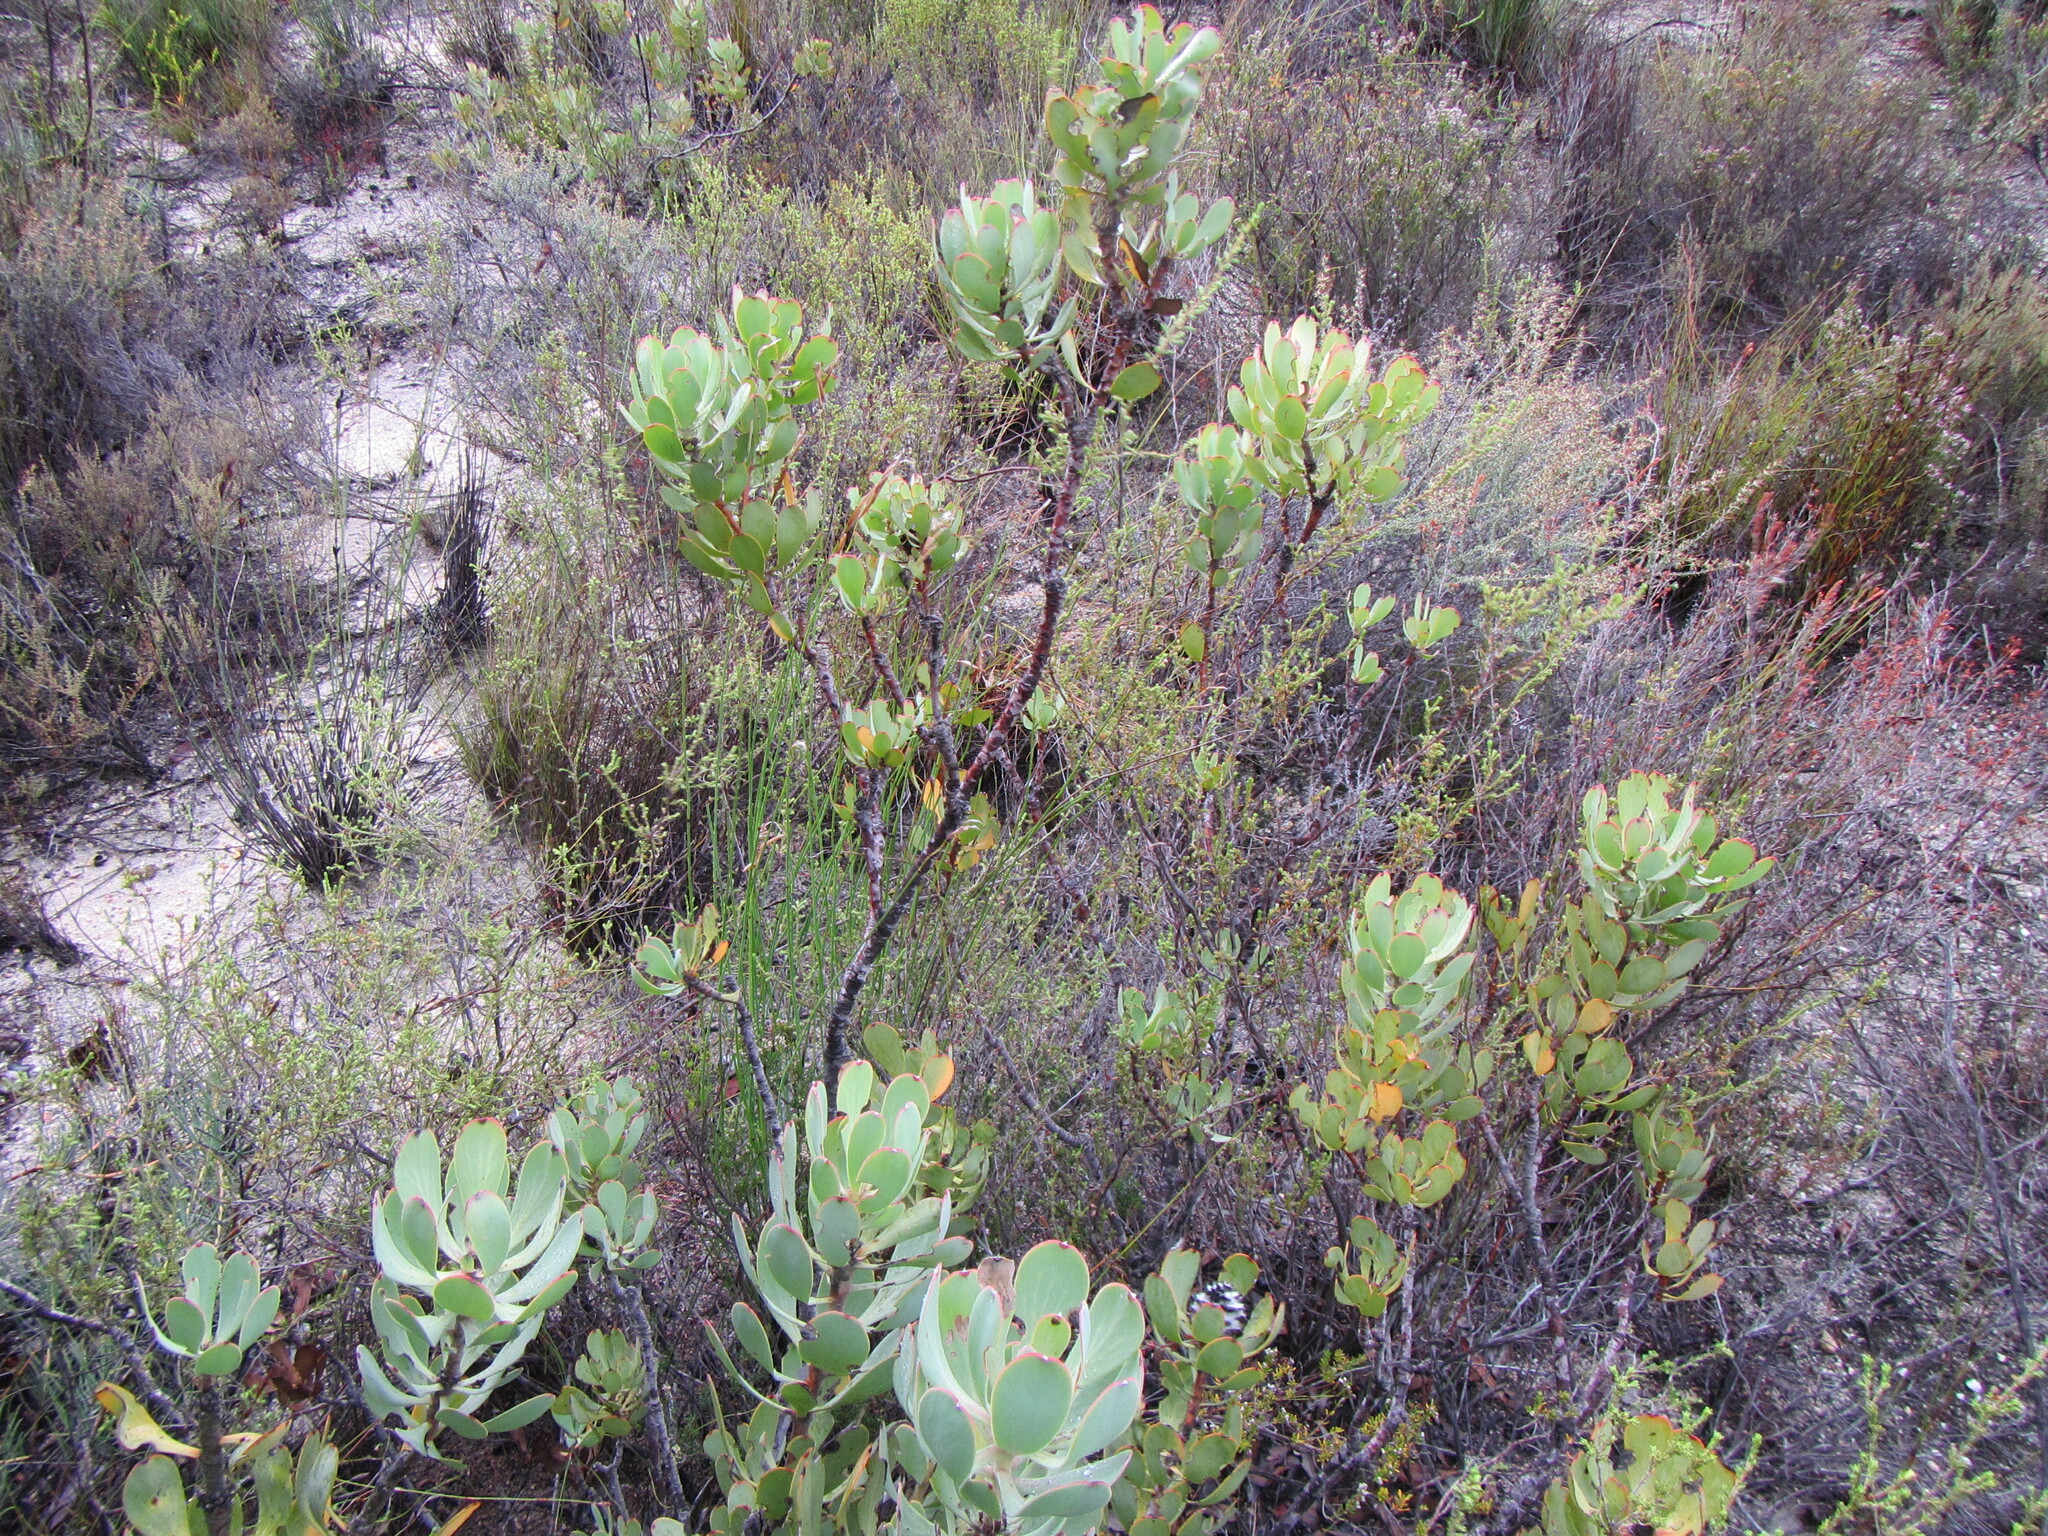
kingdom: Plantae
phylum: Tracheophyta
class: Magnoliopsida
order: Proteales
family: Proteaceae
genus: Leucadendron
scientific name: Leucadendron arcuatum
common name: Red-edge conebush
